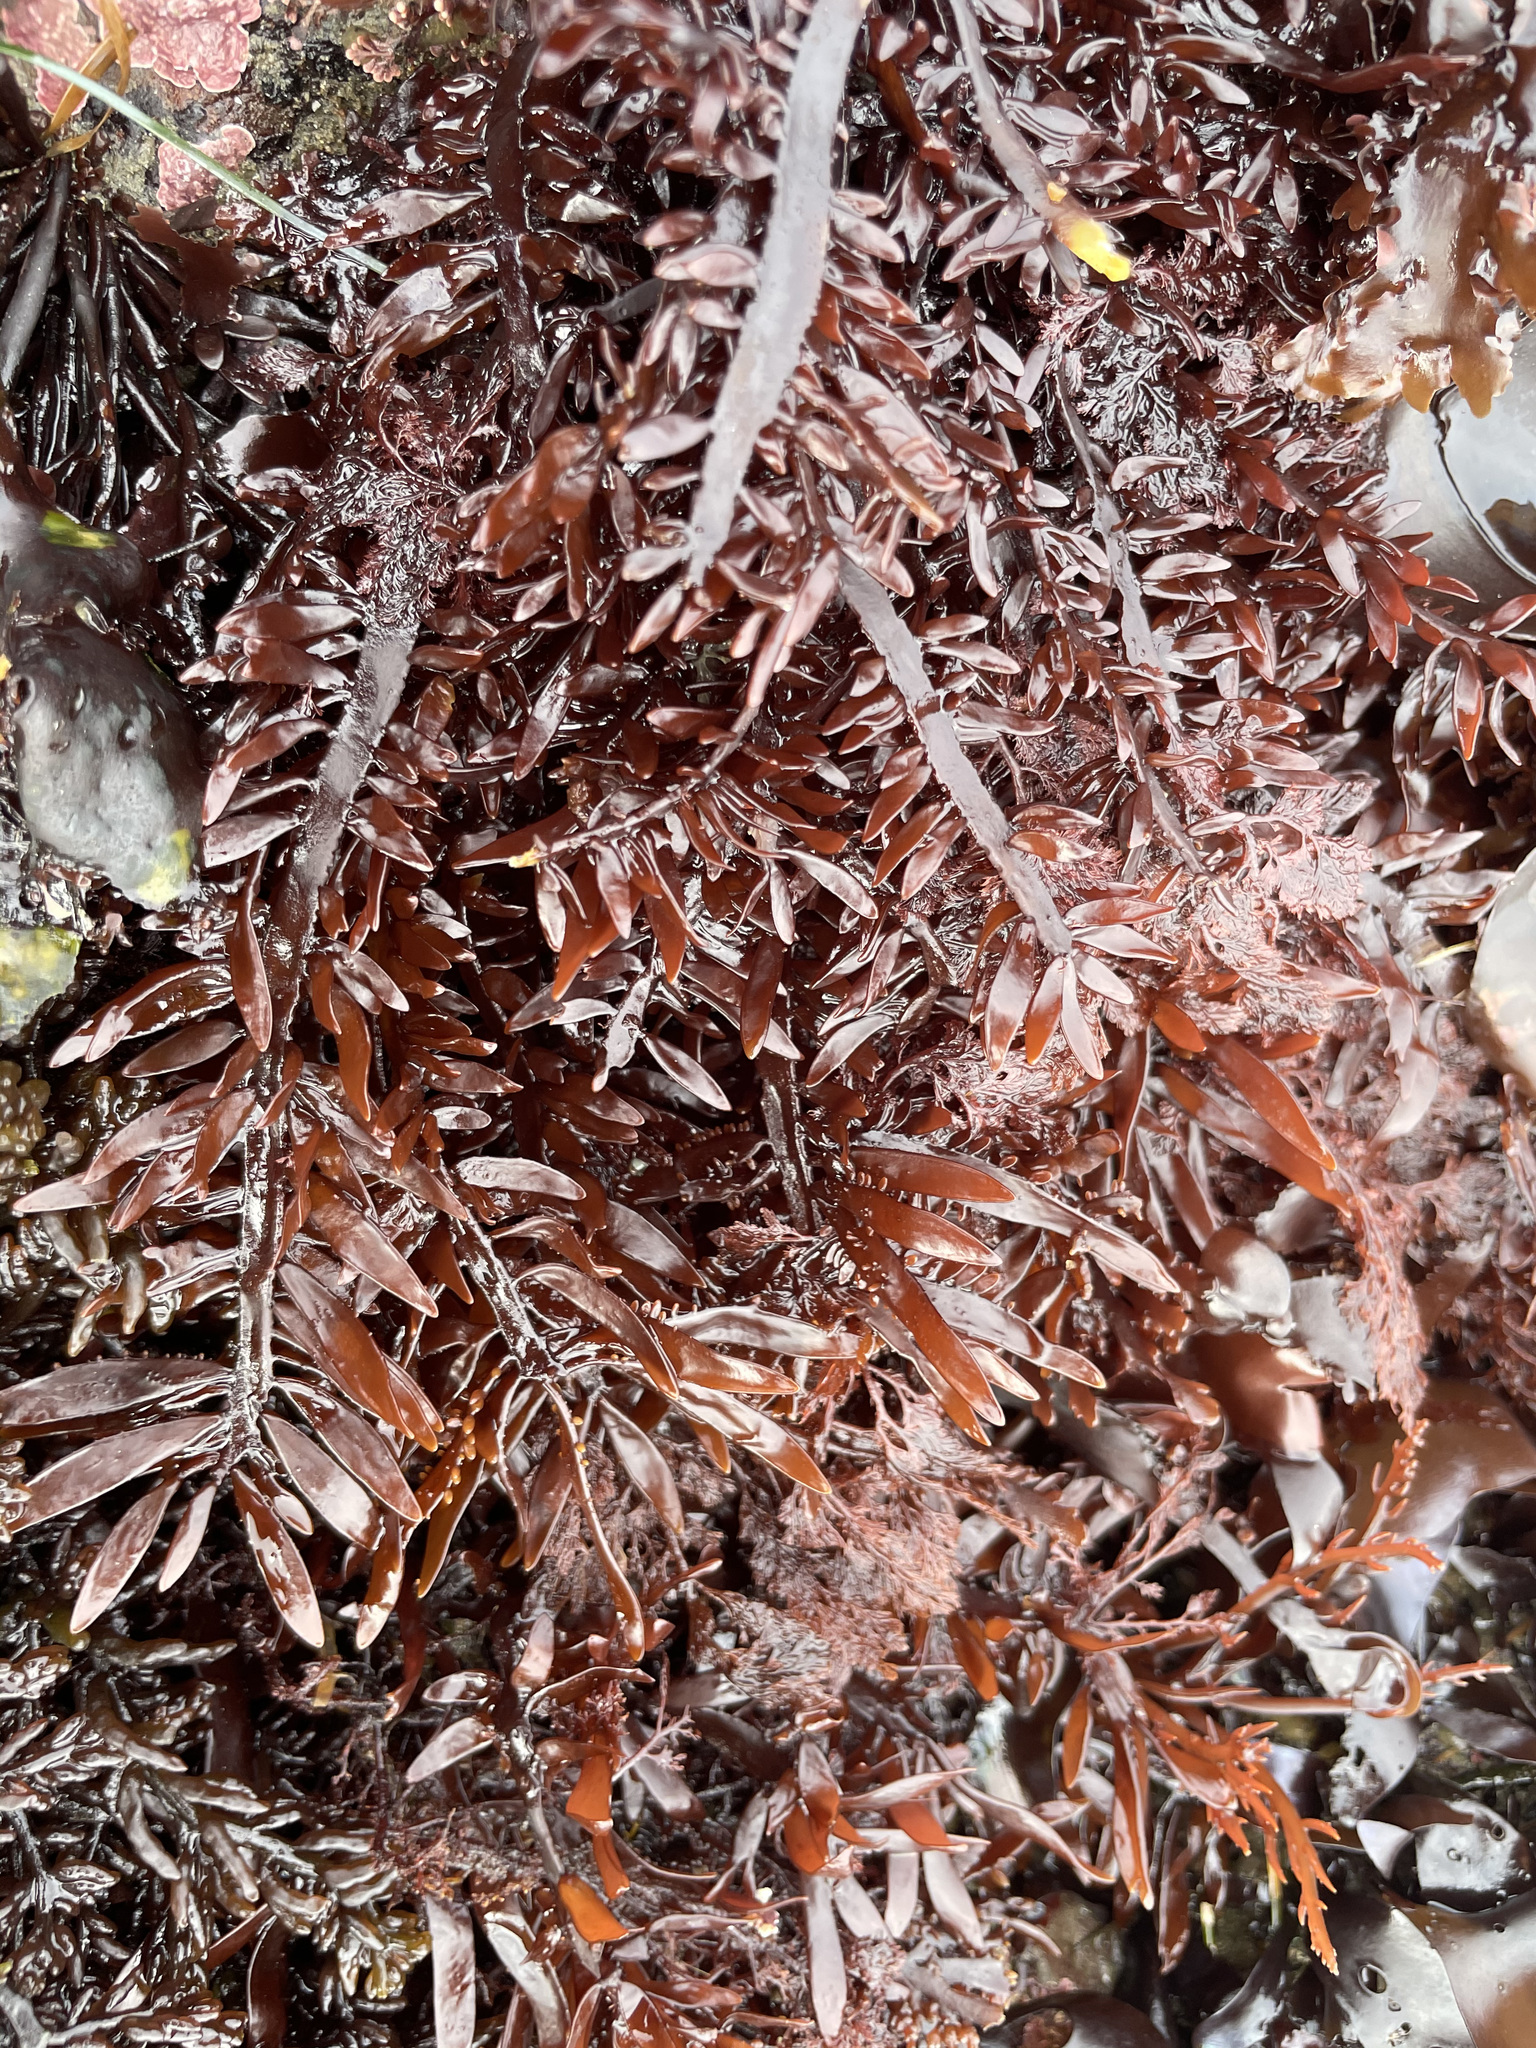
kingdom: Plantae
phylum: Rhodophyta
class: Florideophyceae
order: Halymeniales
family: Halymeniaceae
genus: Grateloupia
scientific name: Grateloupia Prionitis lanceolata
